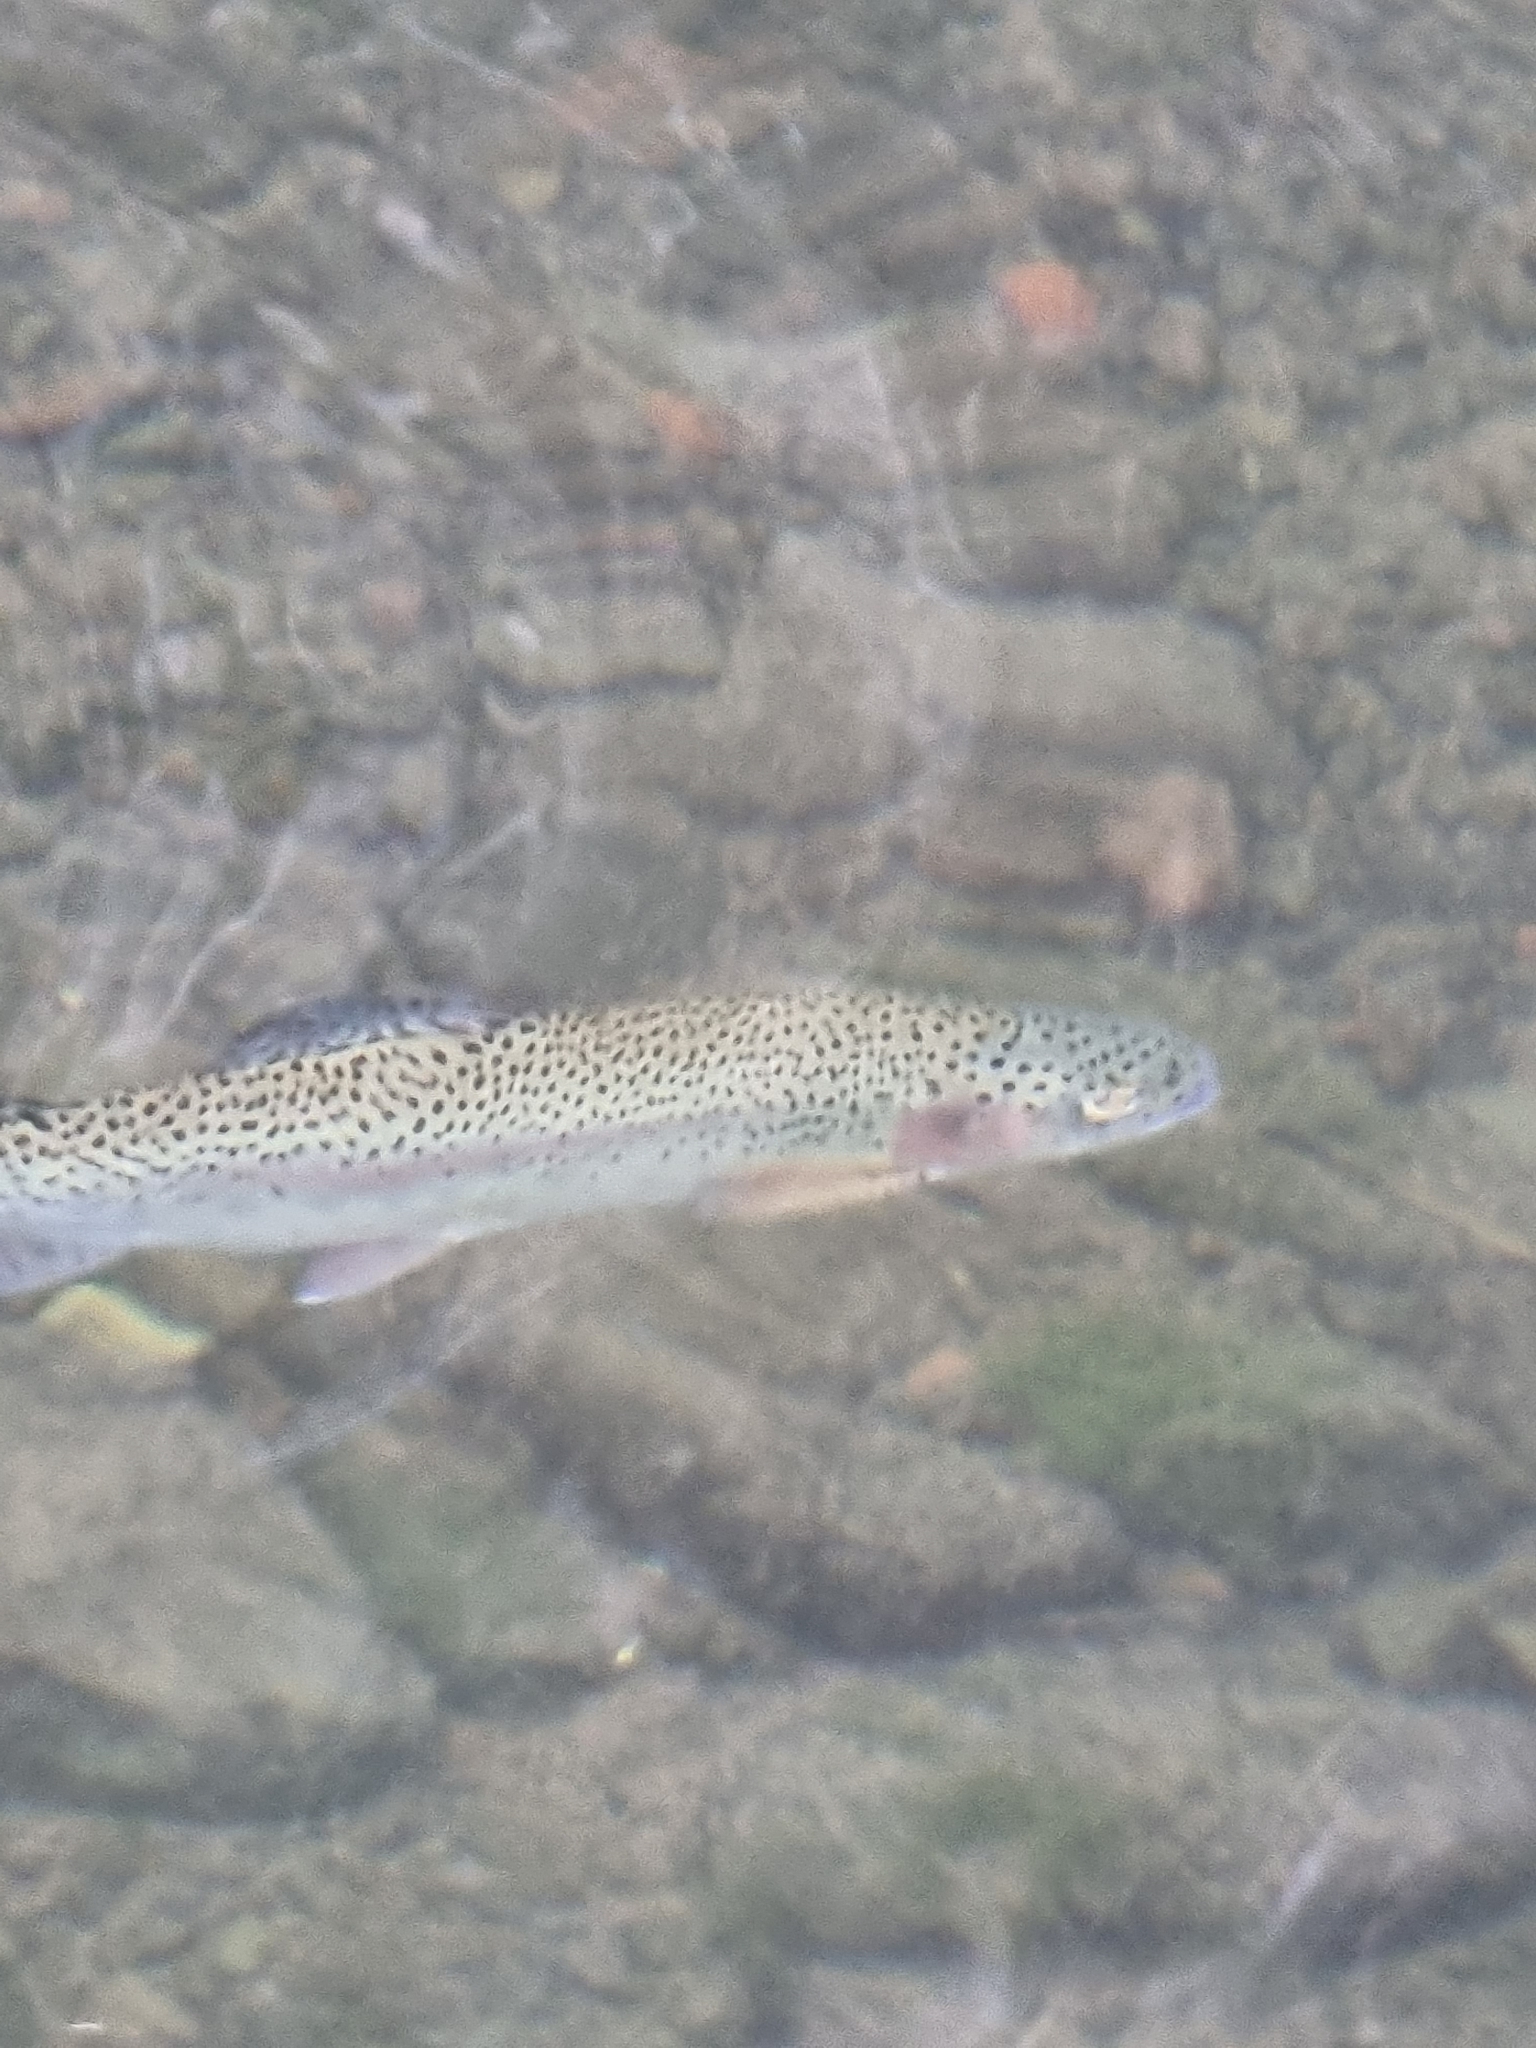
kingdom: Animalia
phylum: Chordata
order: Salmoniformes
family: Salmonidae
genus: Oncorhynchus
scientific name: Oncorhynchus mykiss
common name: Rainbow trout
